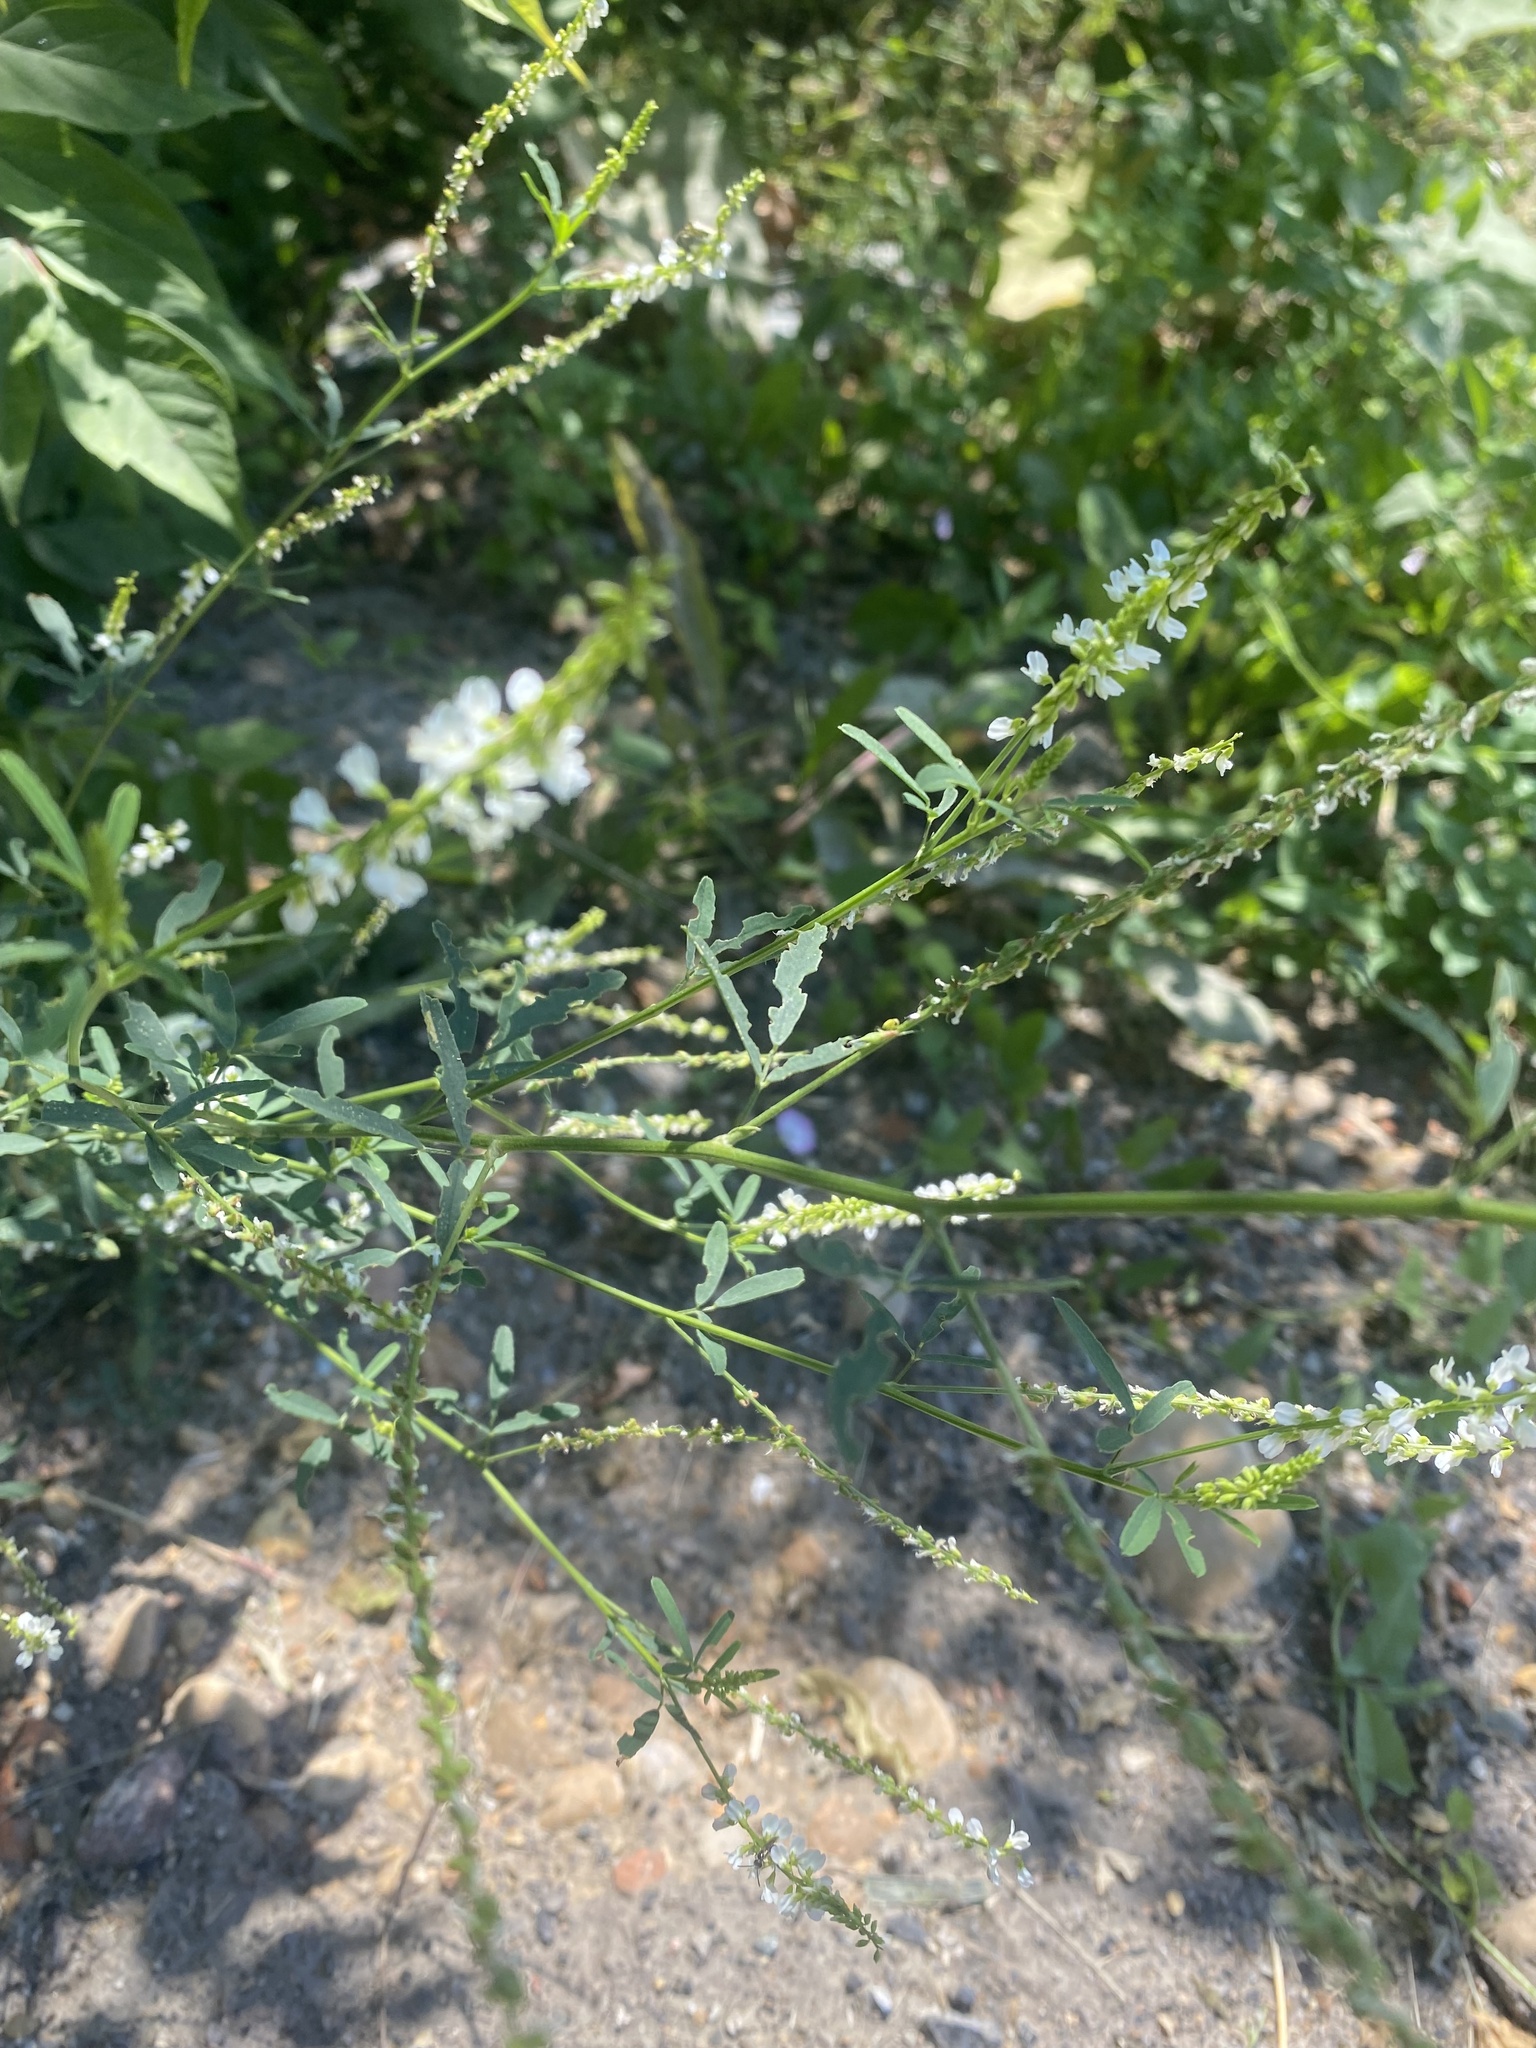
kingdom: Plantae
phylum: Tracheophyta
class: Magnoliopsida
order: Fabales
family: Fabaceae
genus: Melilotus
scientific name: Melilotus albus
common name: White melilot
